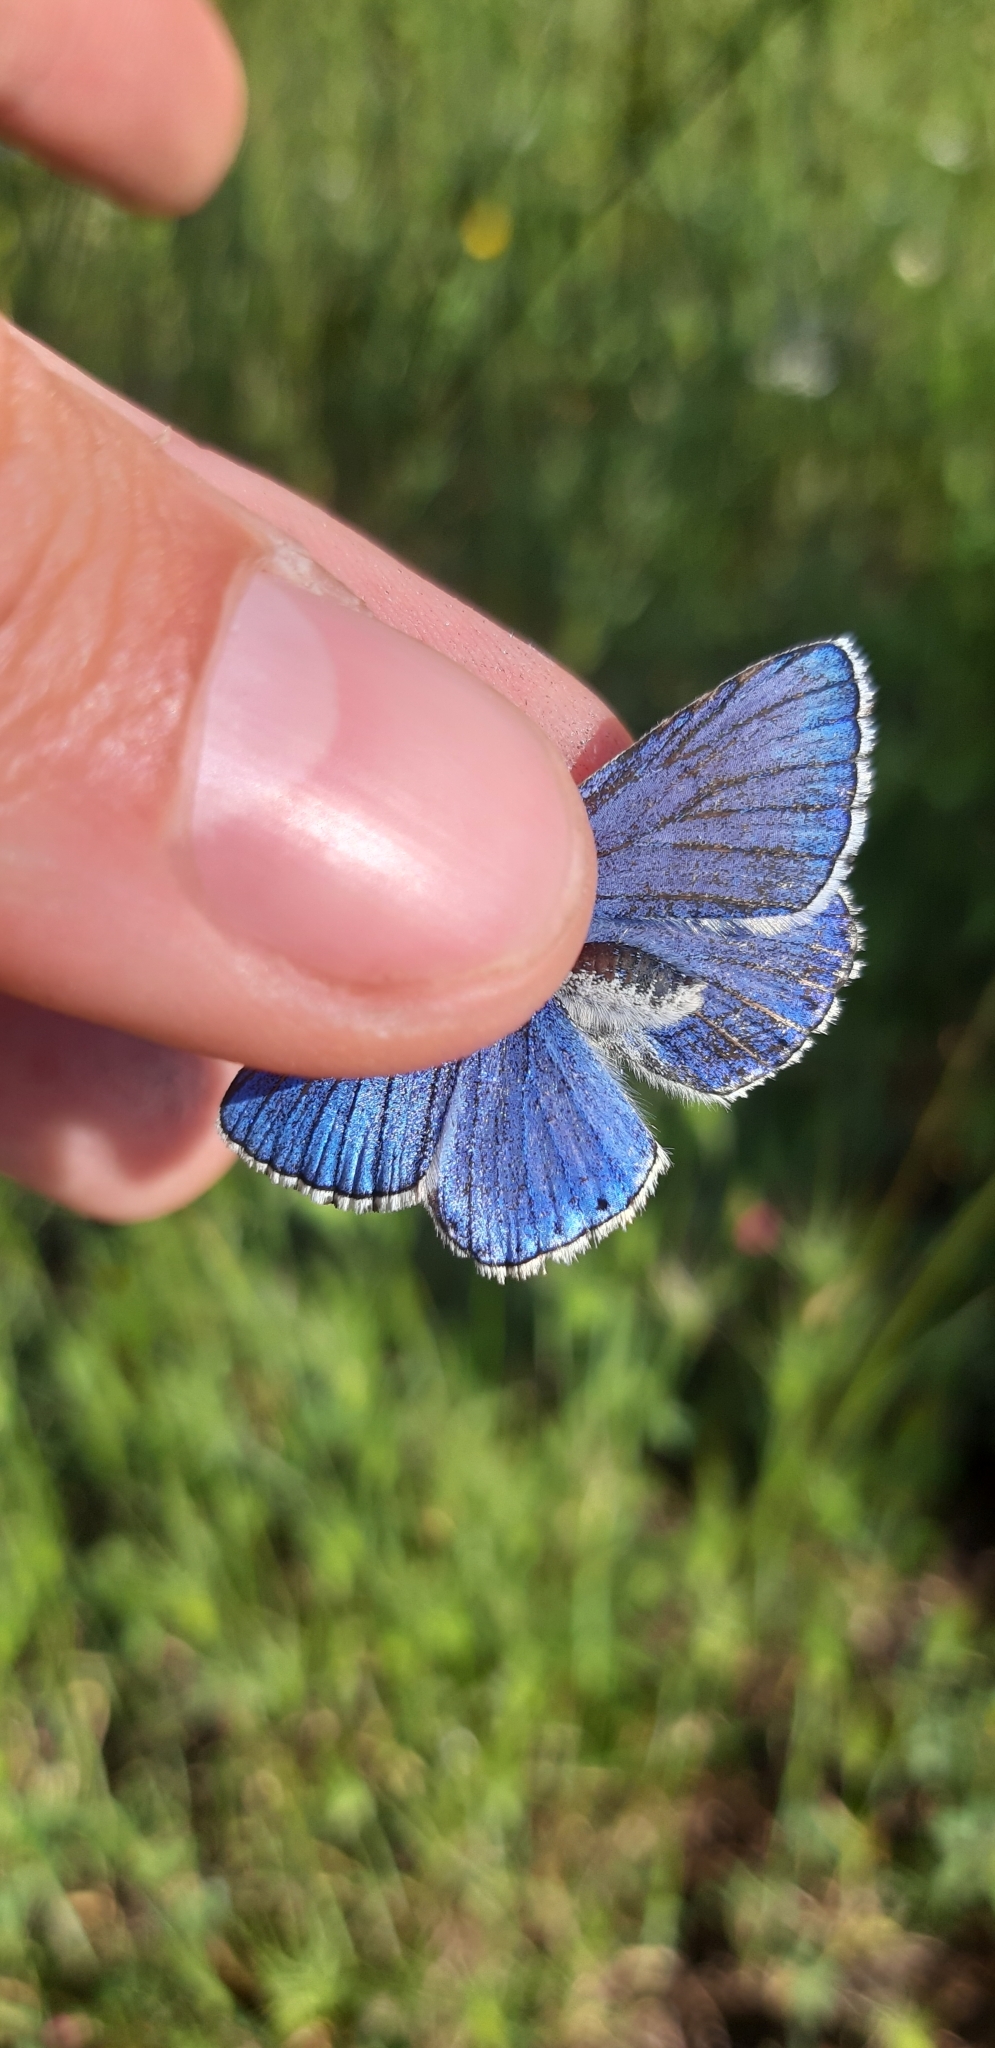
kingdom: Animalia
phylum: Arthropoda
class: Insecta
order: Lepidoptera
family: Lycaenidae
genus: Lysandra
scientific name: Lysandra bellargus
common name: Adonis blue
